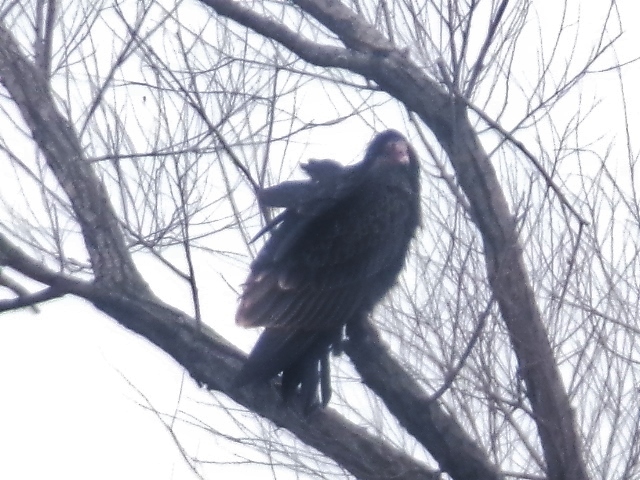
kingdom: Animalia
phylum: Chordata
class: Aves
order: Accipitriformes
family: Cathartidae
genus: Cathartes
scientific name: Cathartes aura
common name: Turkey vulture
